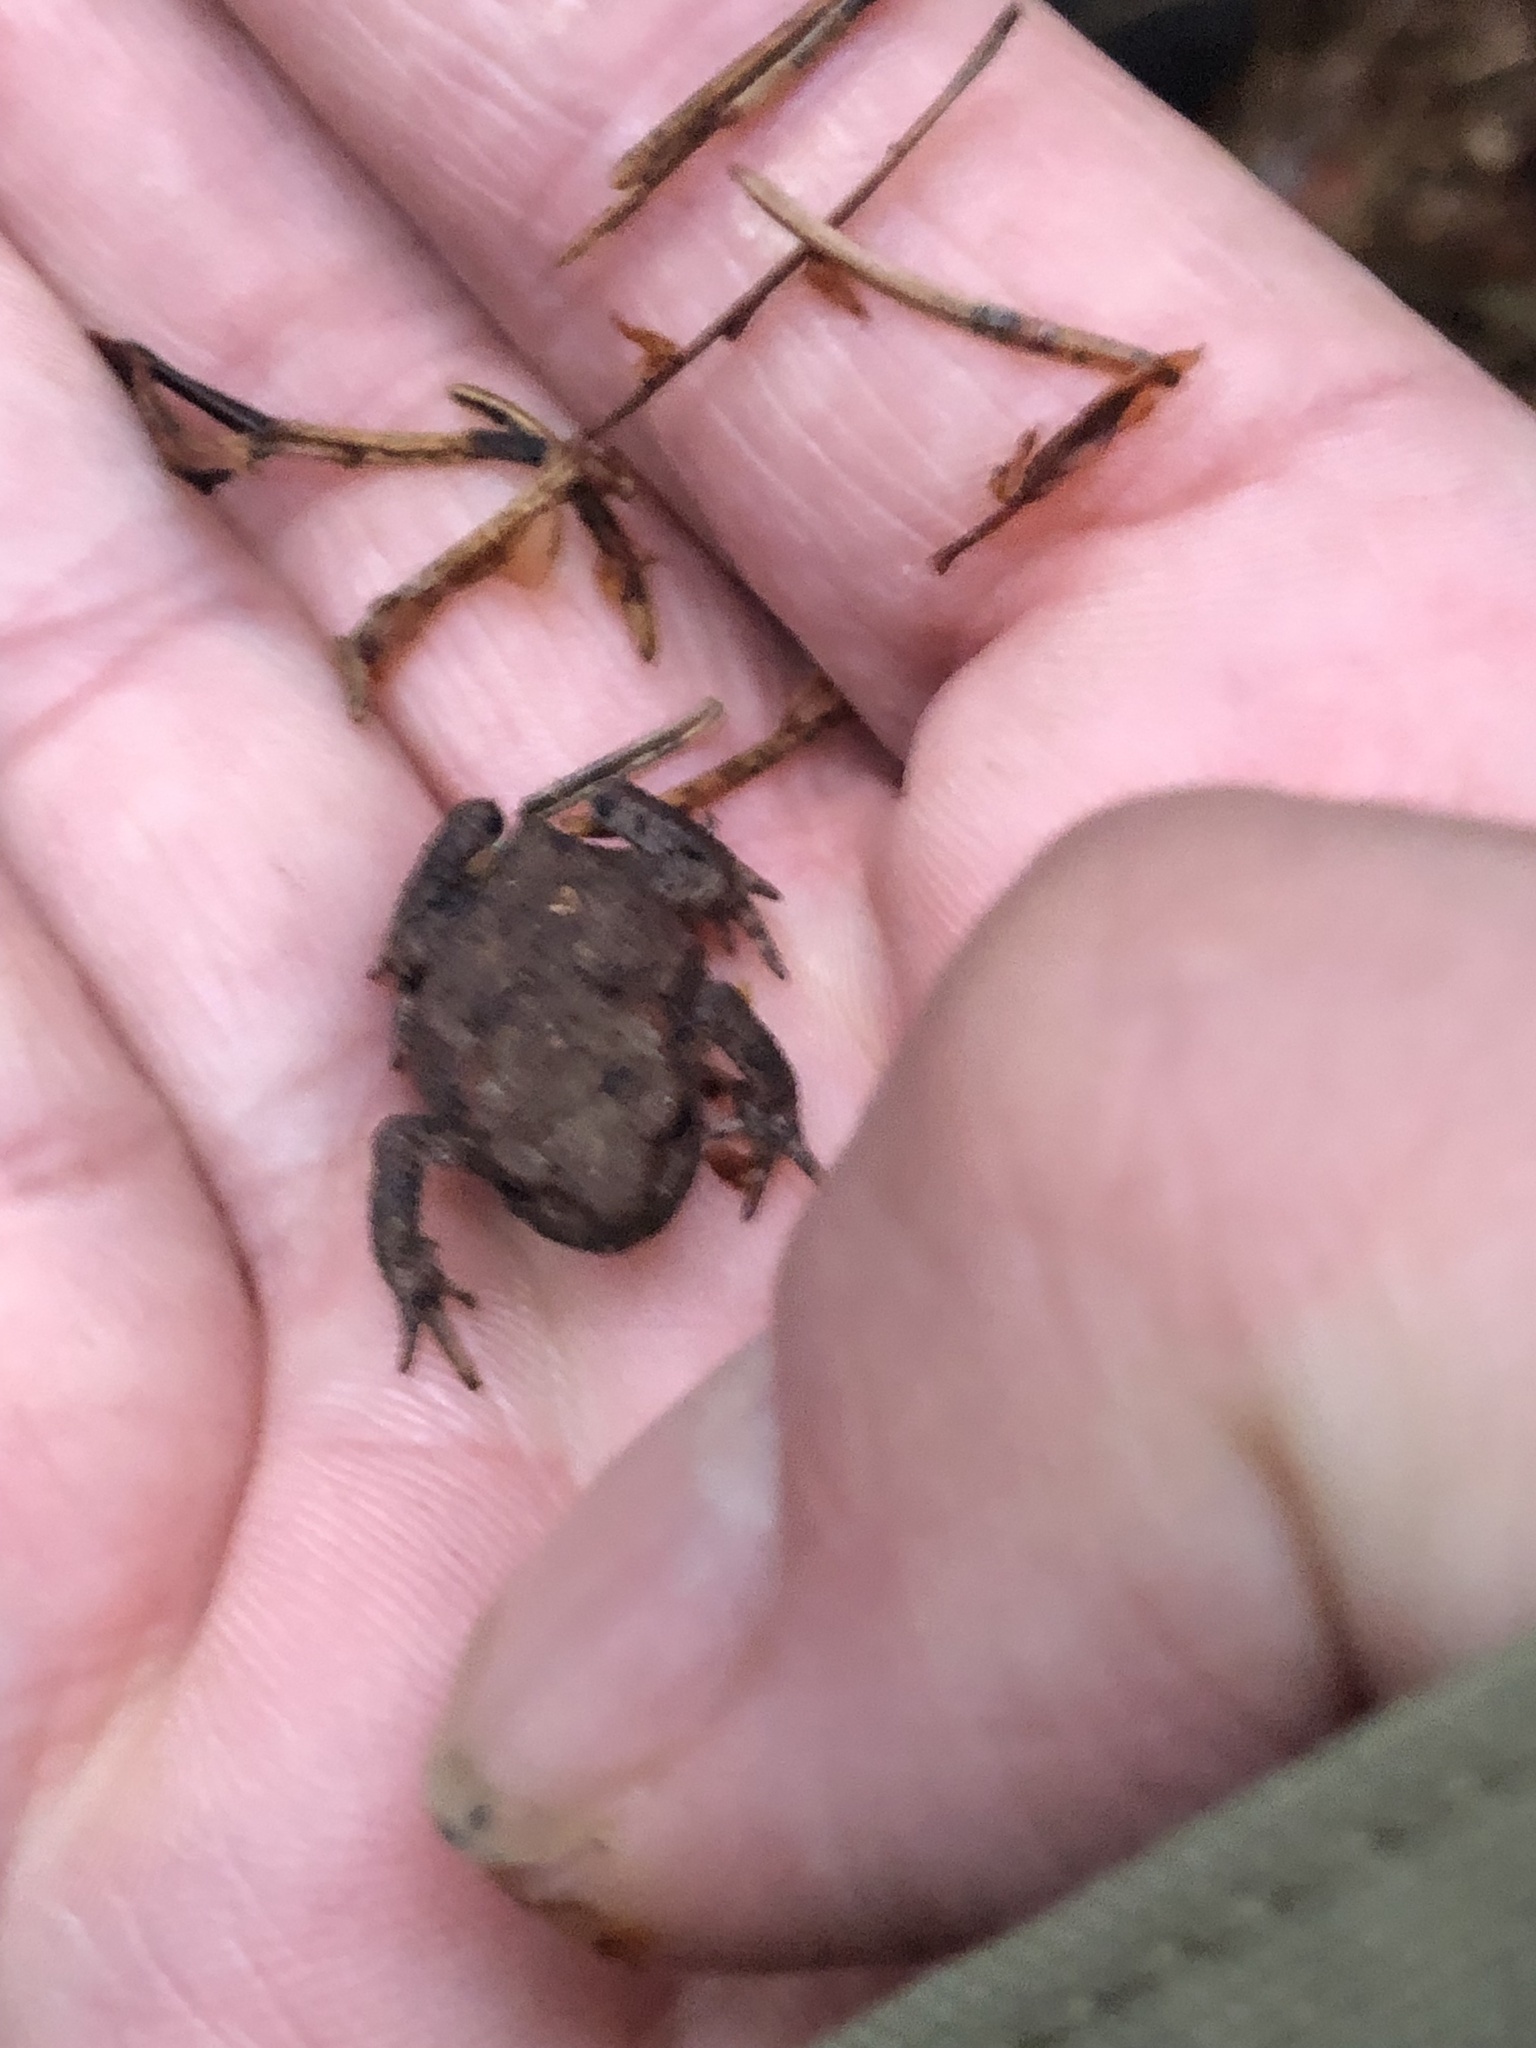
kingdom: Animalia
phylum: Chordata
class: Amphibia
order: Anura
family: Bufonidae
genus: Bufo
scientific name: Bufo bufo
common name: Common toad
